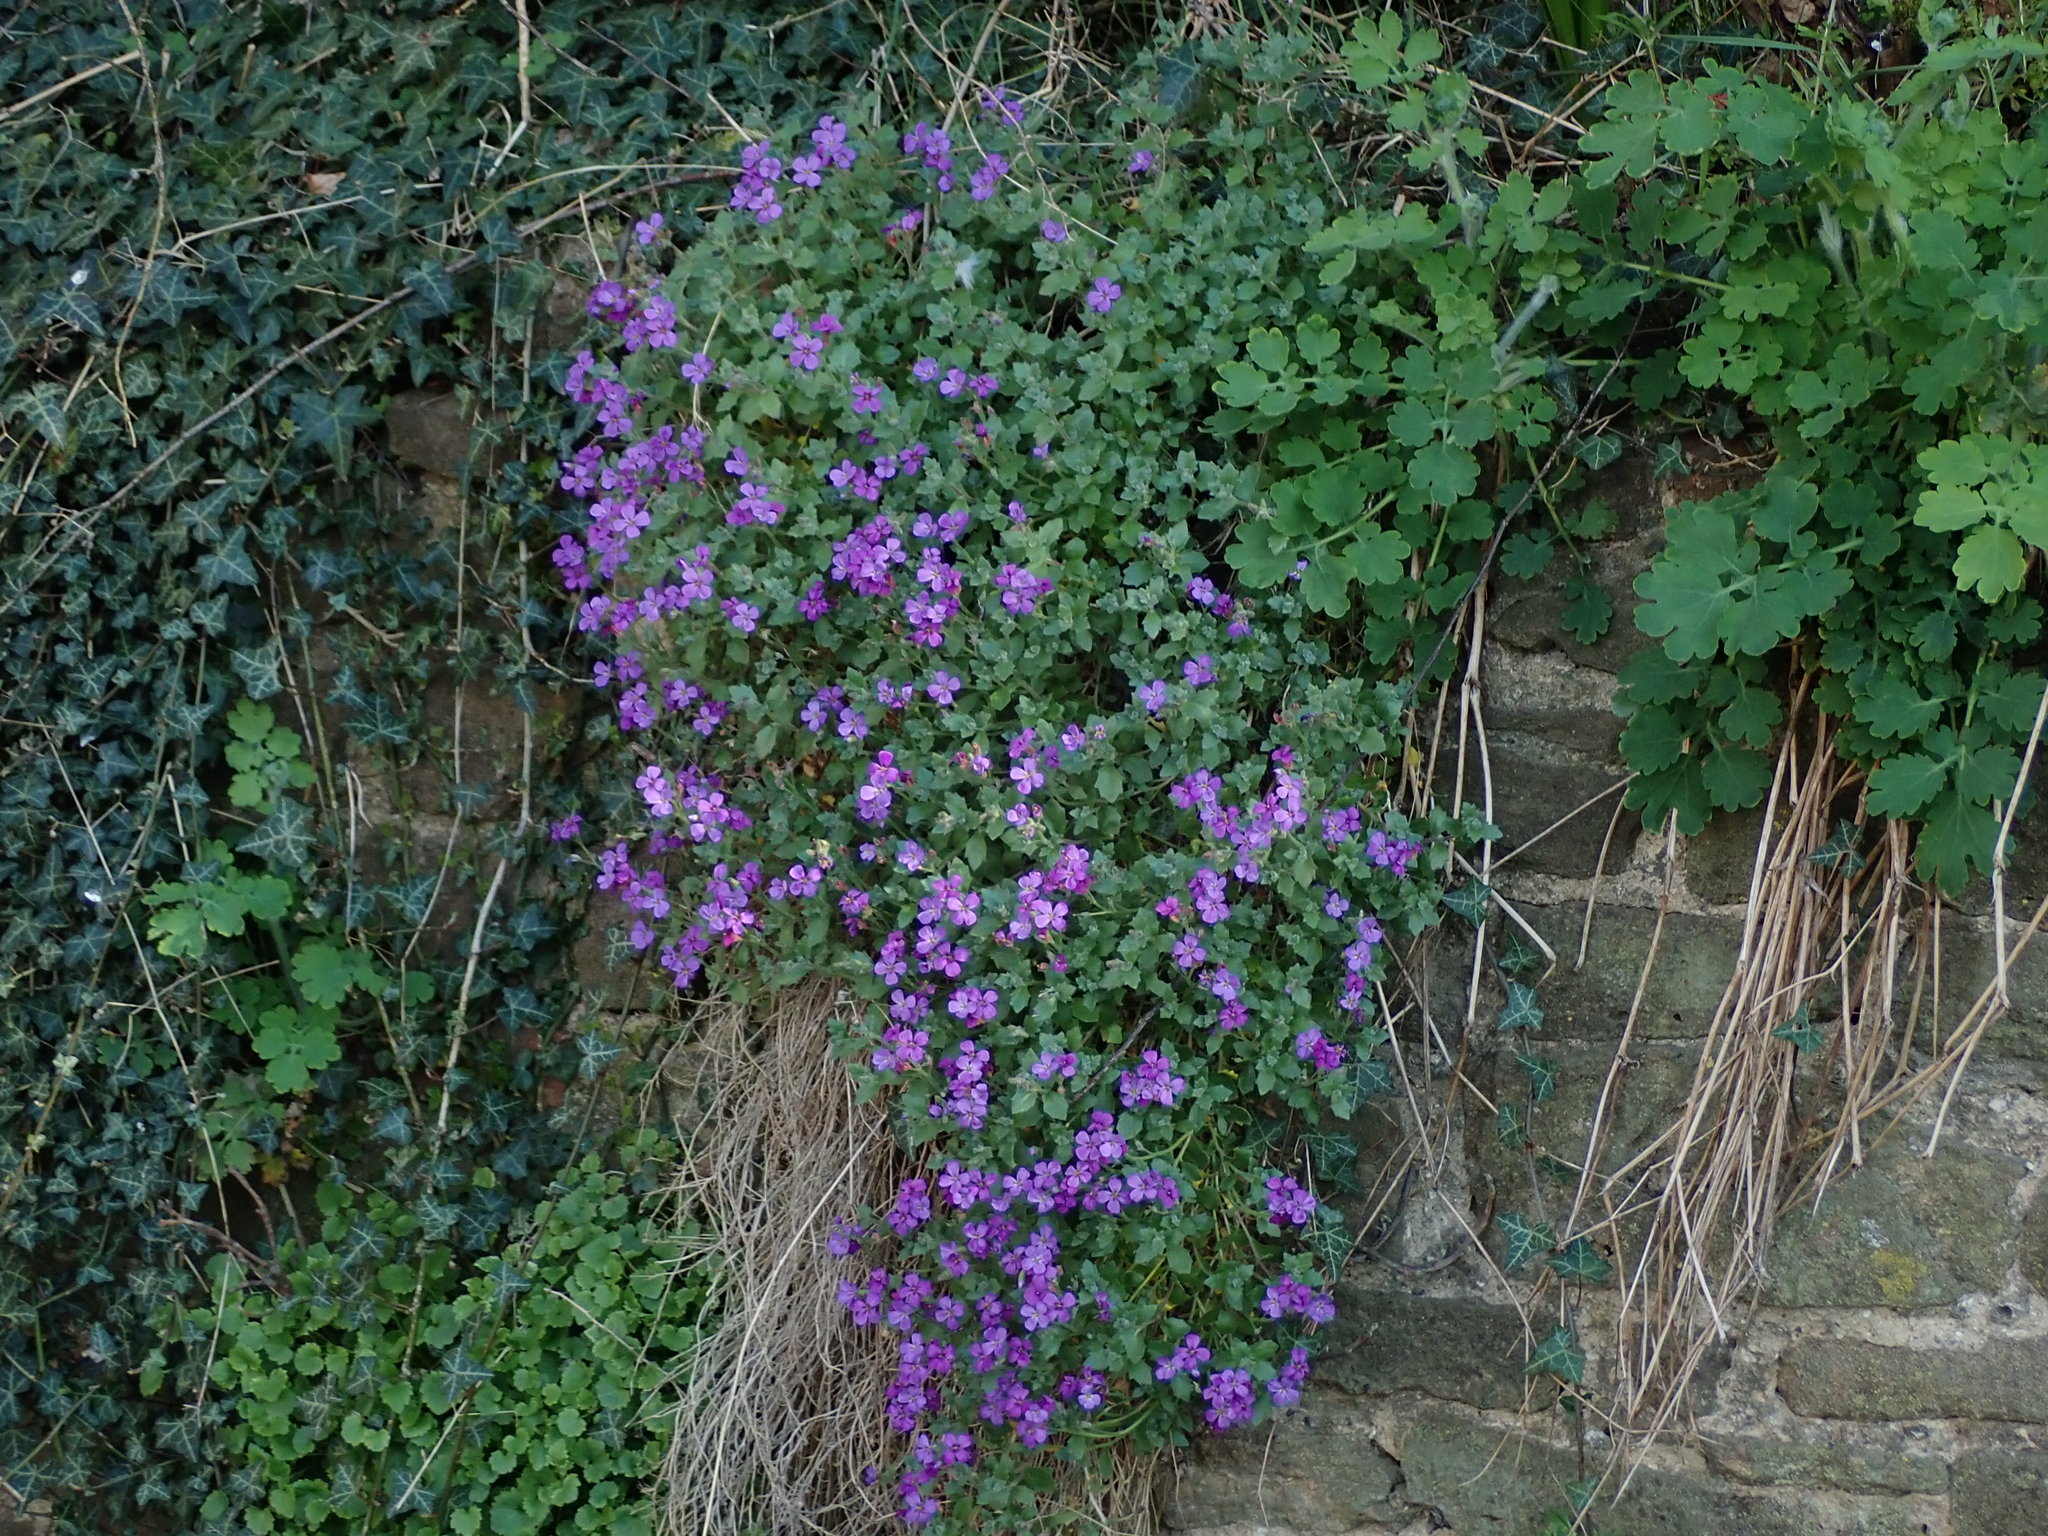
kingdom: Plantae
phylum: Tracheophyta
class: Magnoliopsida
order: Brassicales
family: Brassicaceae
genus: Aubrieta
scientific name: Aubrieta deltoidea
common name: Aubretia
